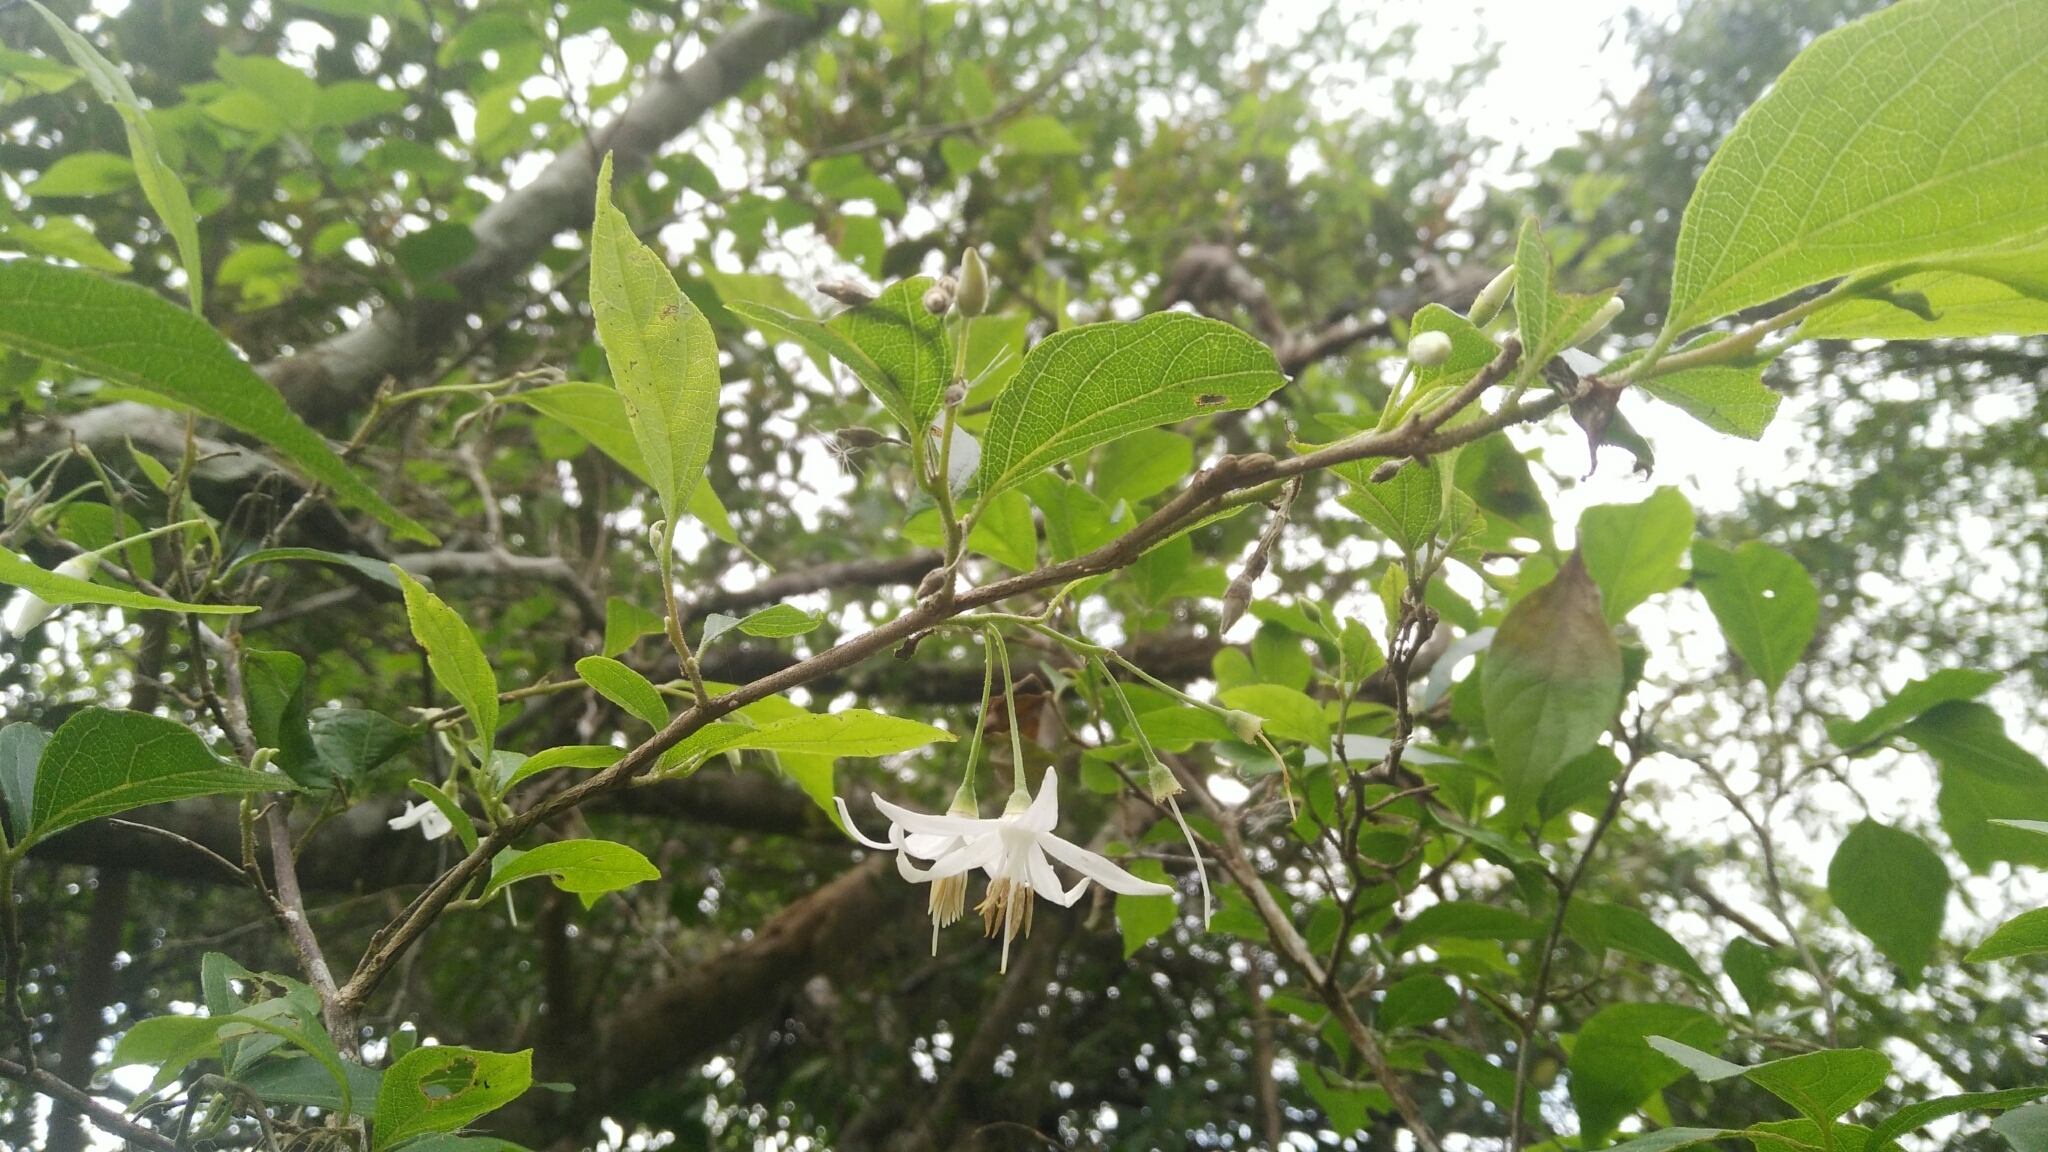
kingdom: Plantae
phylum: Tracheophyta
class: Magnoliopsida
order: Ericales
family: Styracaceae
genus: Styrax
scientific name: Styrax formosanus
